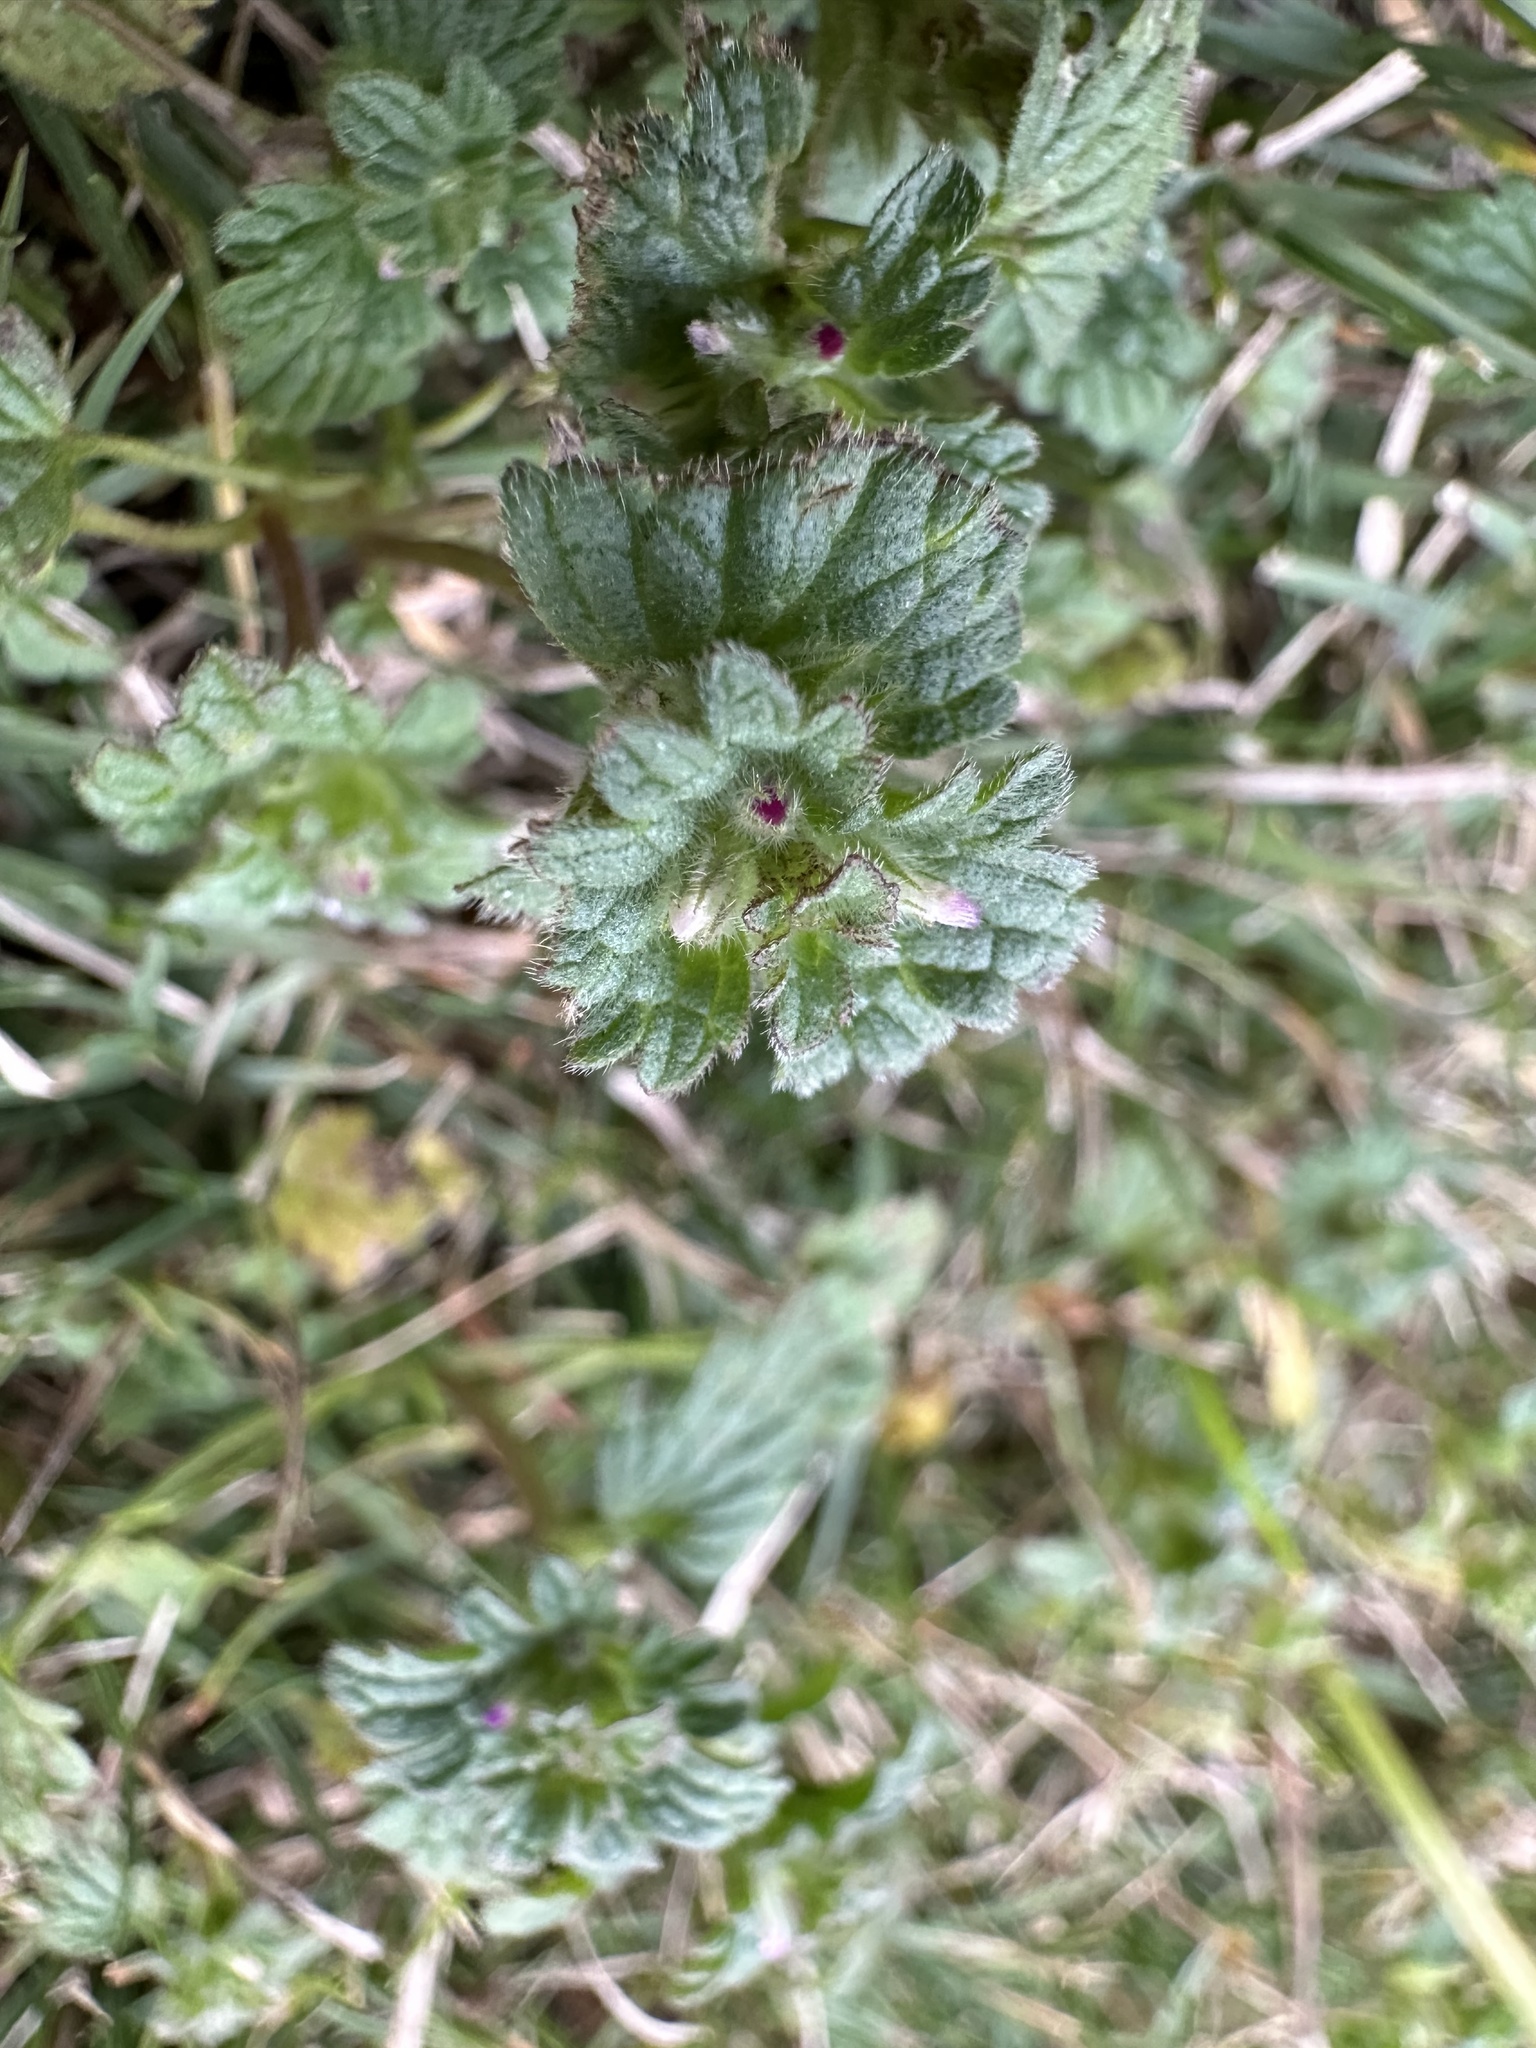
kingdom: Plantae
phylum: Tracheophyta
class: Magnoliopsida
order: Lamiales
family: Lamiaceae
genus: Lamium
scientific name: Lamium amplexicaule
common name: Henbit dead-nettle
